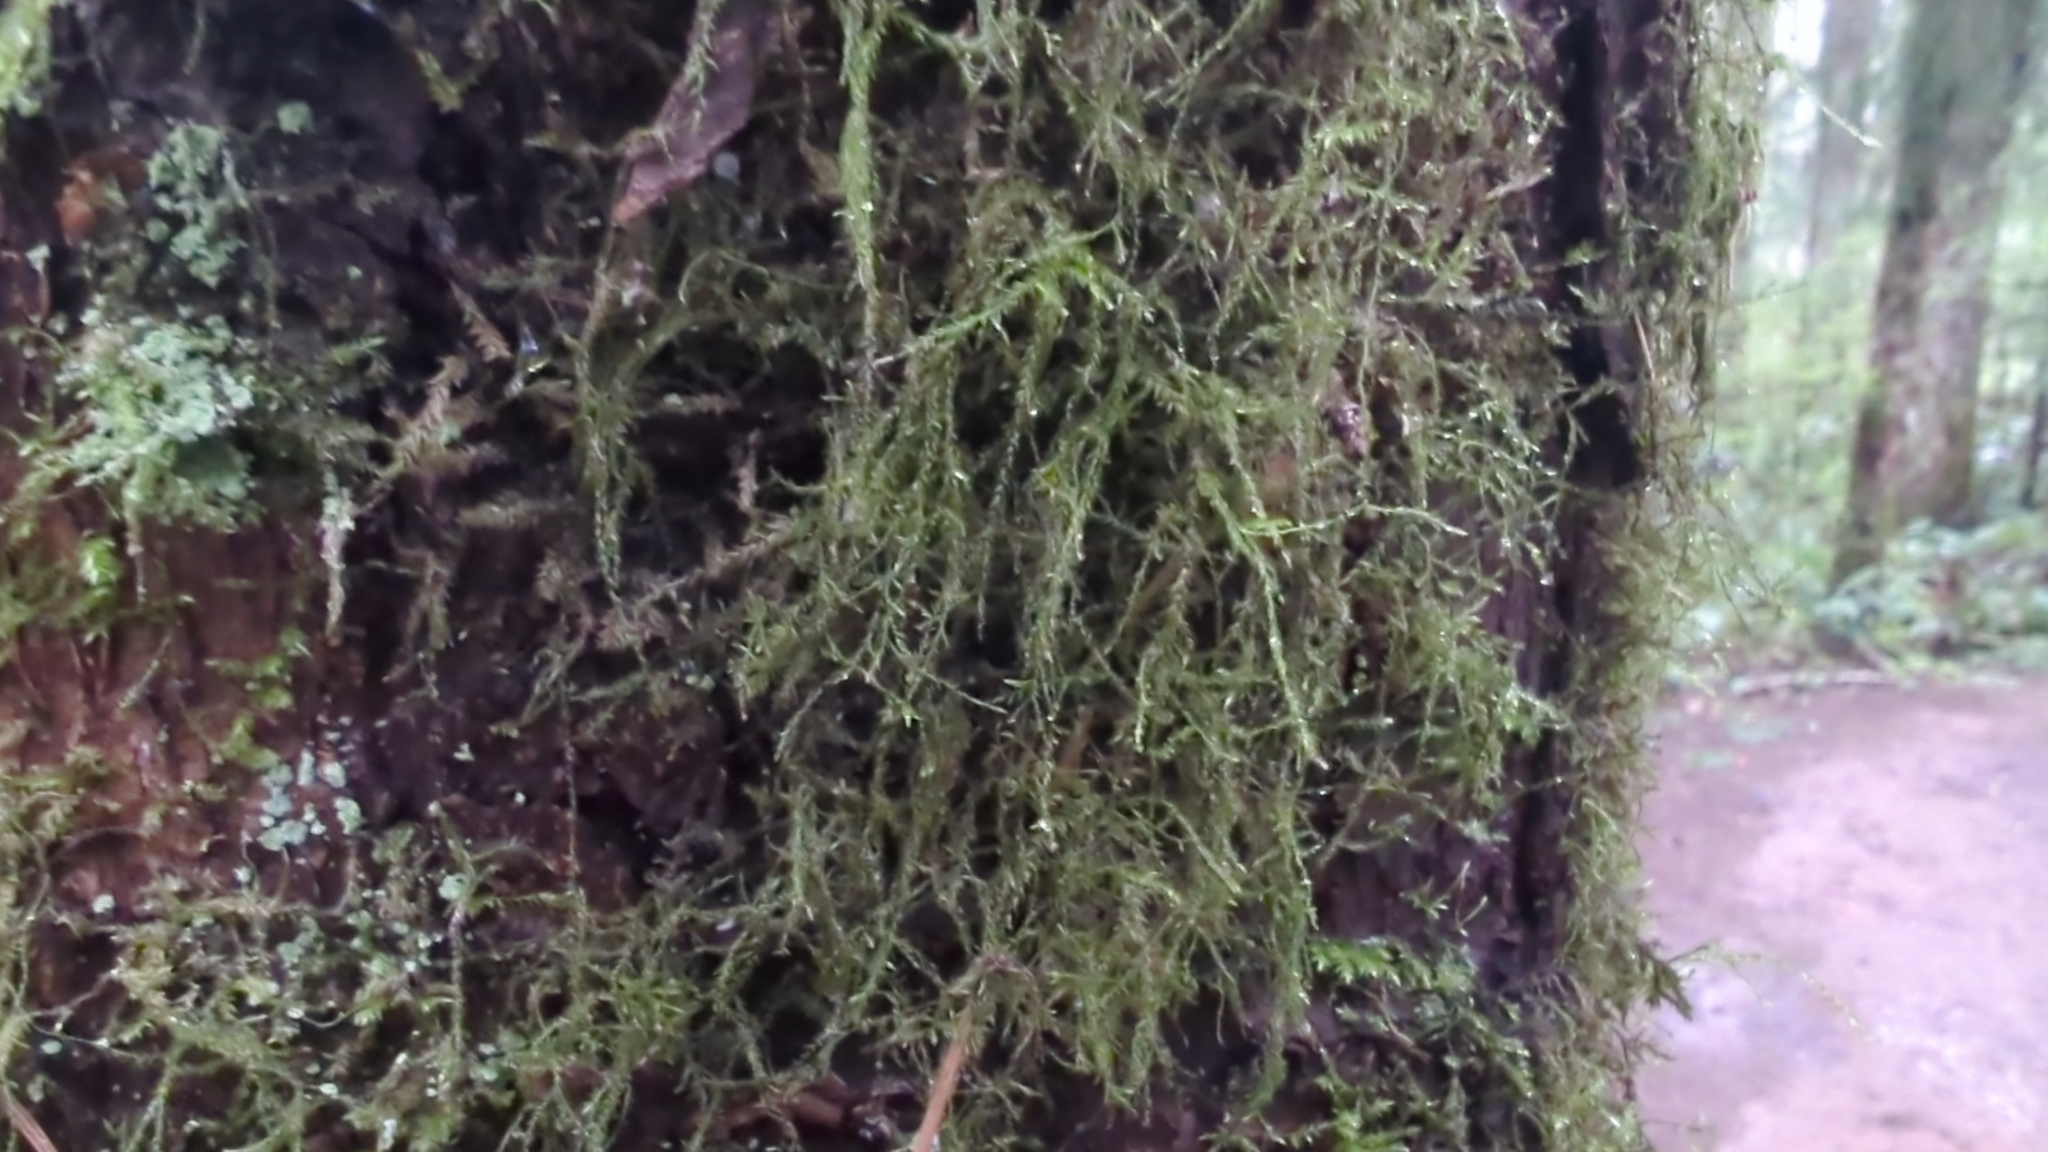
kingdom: Plantae
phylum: Bryophyta
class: Bryopsida
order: Hypnales
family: Lembophyllaceae
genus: Pseudisothecium
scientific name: Pseudisothecium stoloniferum
